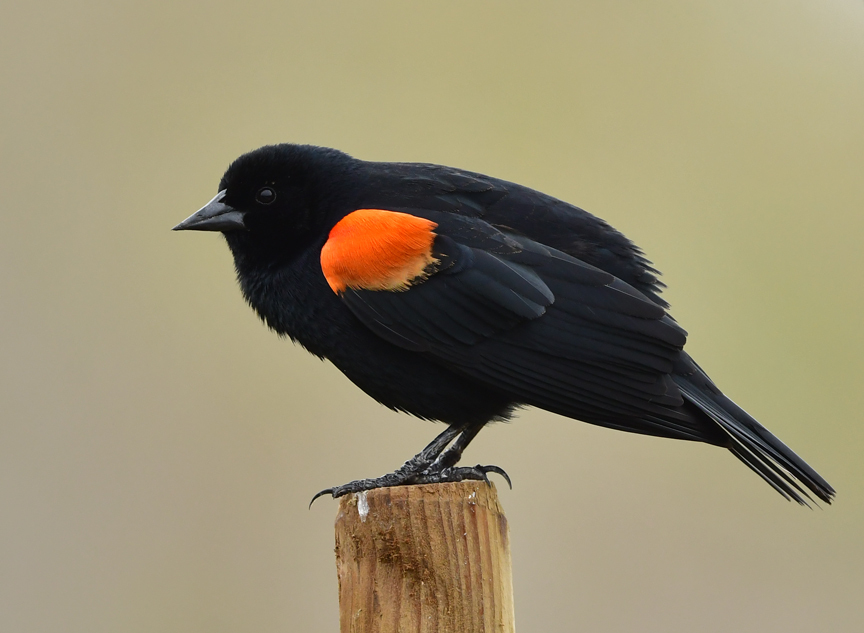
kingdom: Animalia
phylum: Chordata
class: Aves
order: Passeriformes
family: Icteridae
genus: Agelaius
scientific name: Agelaius phoeniceus
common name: Red-winged blackbird
